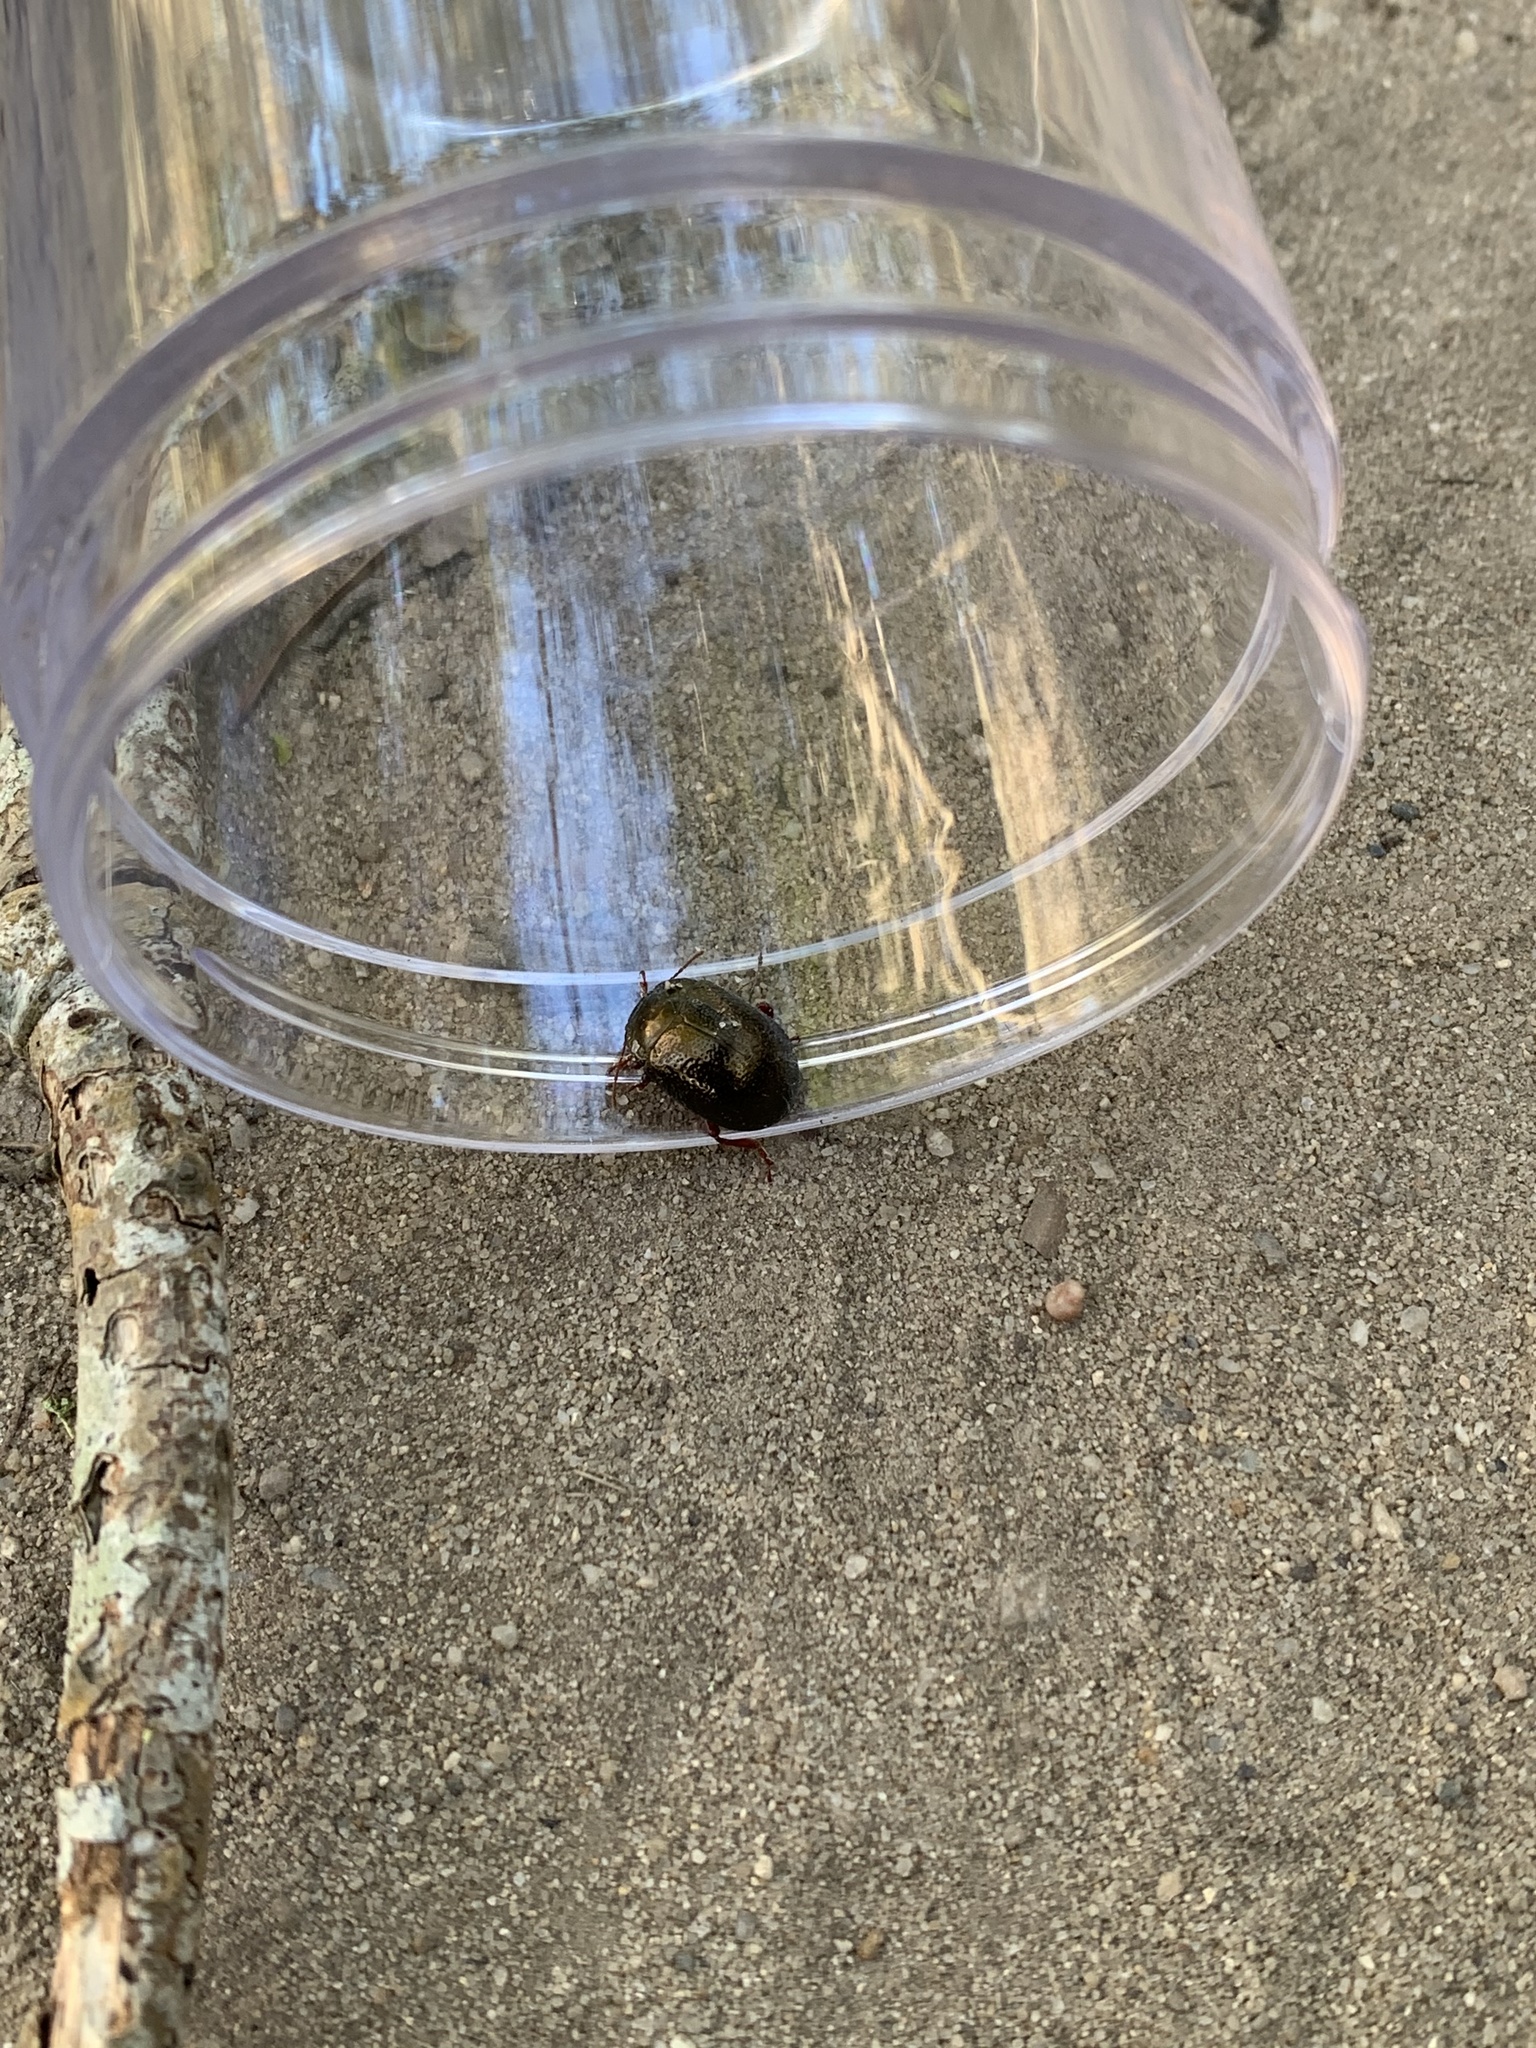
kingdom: Animalia
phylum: Arthropoda
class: Insecta
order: Coleoptera
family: Chrysomelidae
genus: Chrysolina
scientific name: Chrysolina bankii
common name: Leaf beetle
